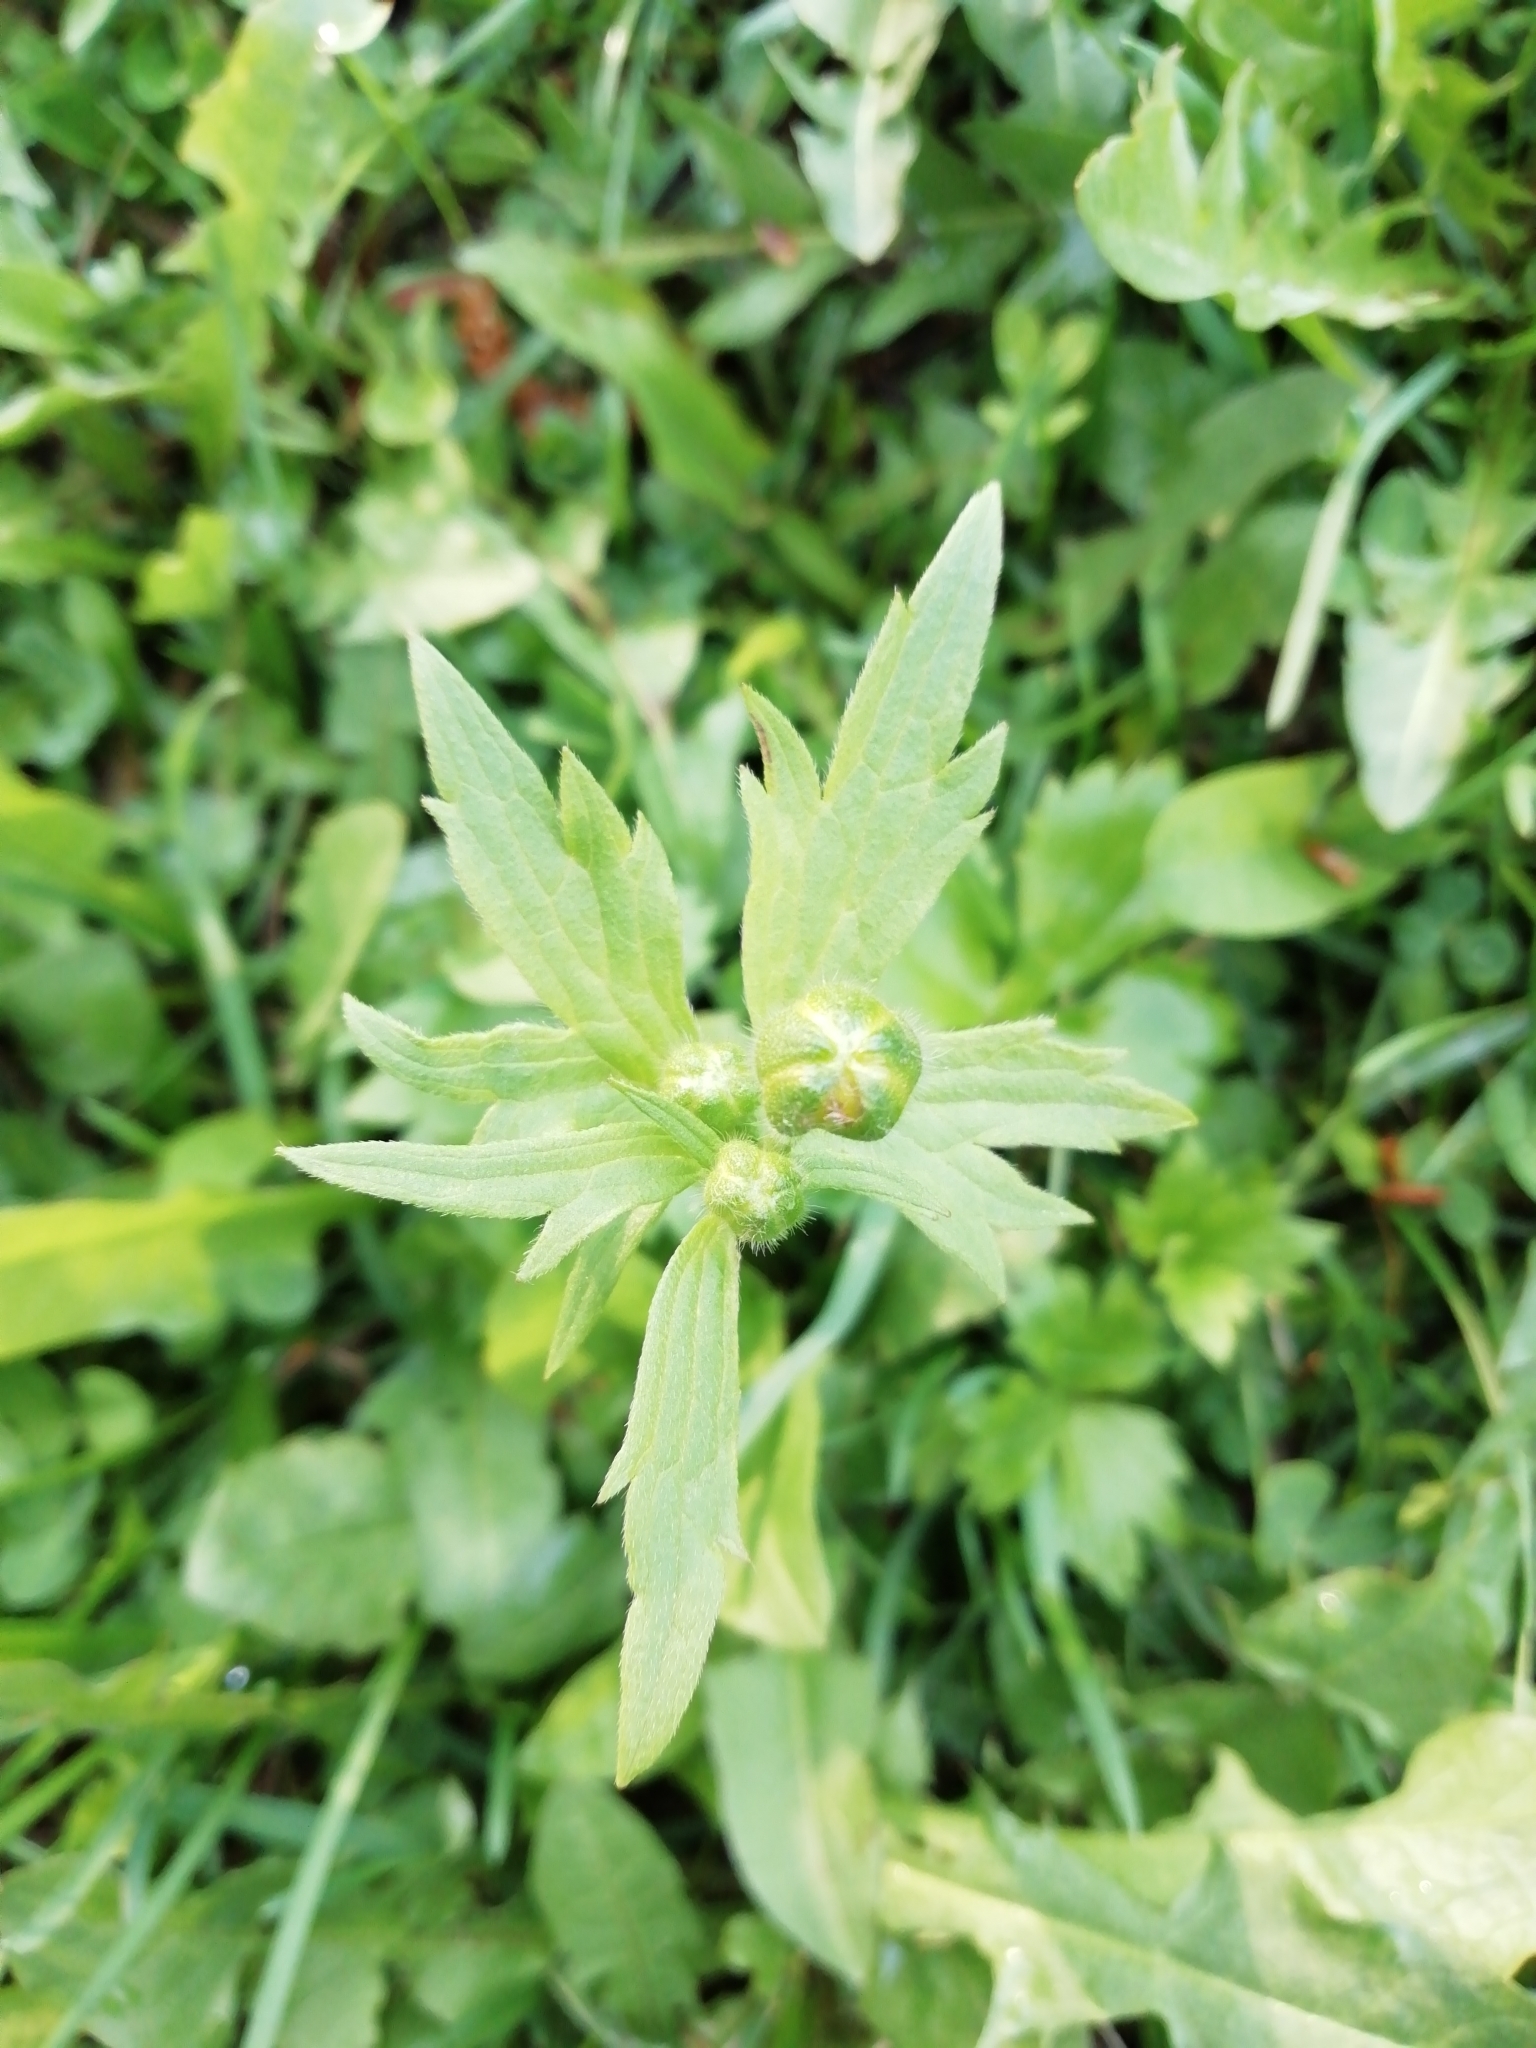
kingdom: Plantae
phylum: Tracheophyta
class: Magnoliopsida
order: Ranunculales
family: Ranunculaceae
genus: Ranunculus
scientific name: Ranunculus repens
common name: Creeping buttercup
